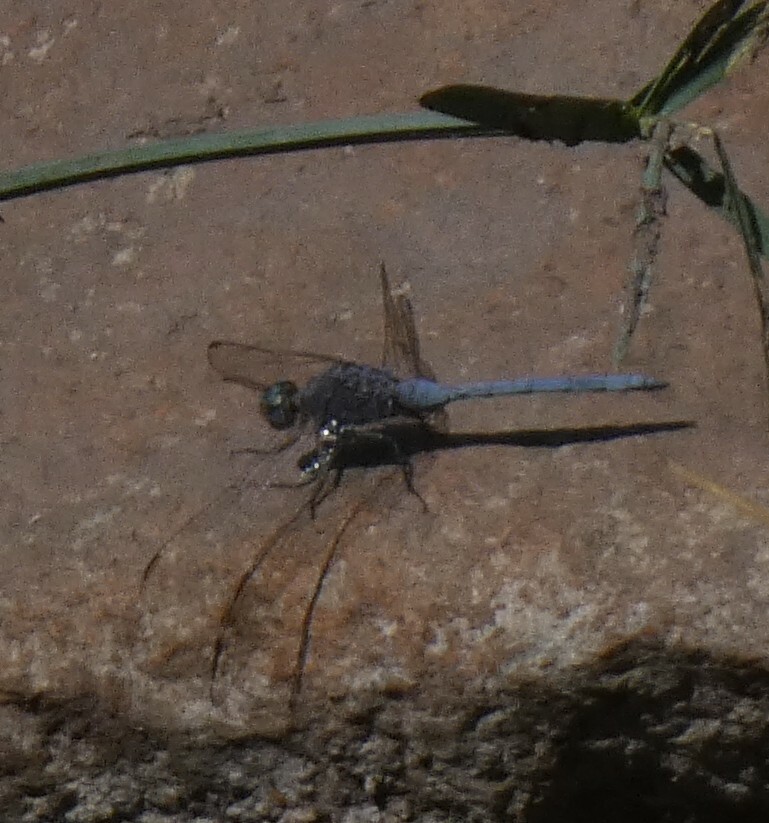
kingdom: Animalia
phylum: Arthropoda
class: Insecta
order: Odonata
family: Libellulidae
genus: Orthetrum
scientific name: Orthetrum chrysostigma
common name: Epaulet skimmer
